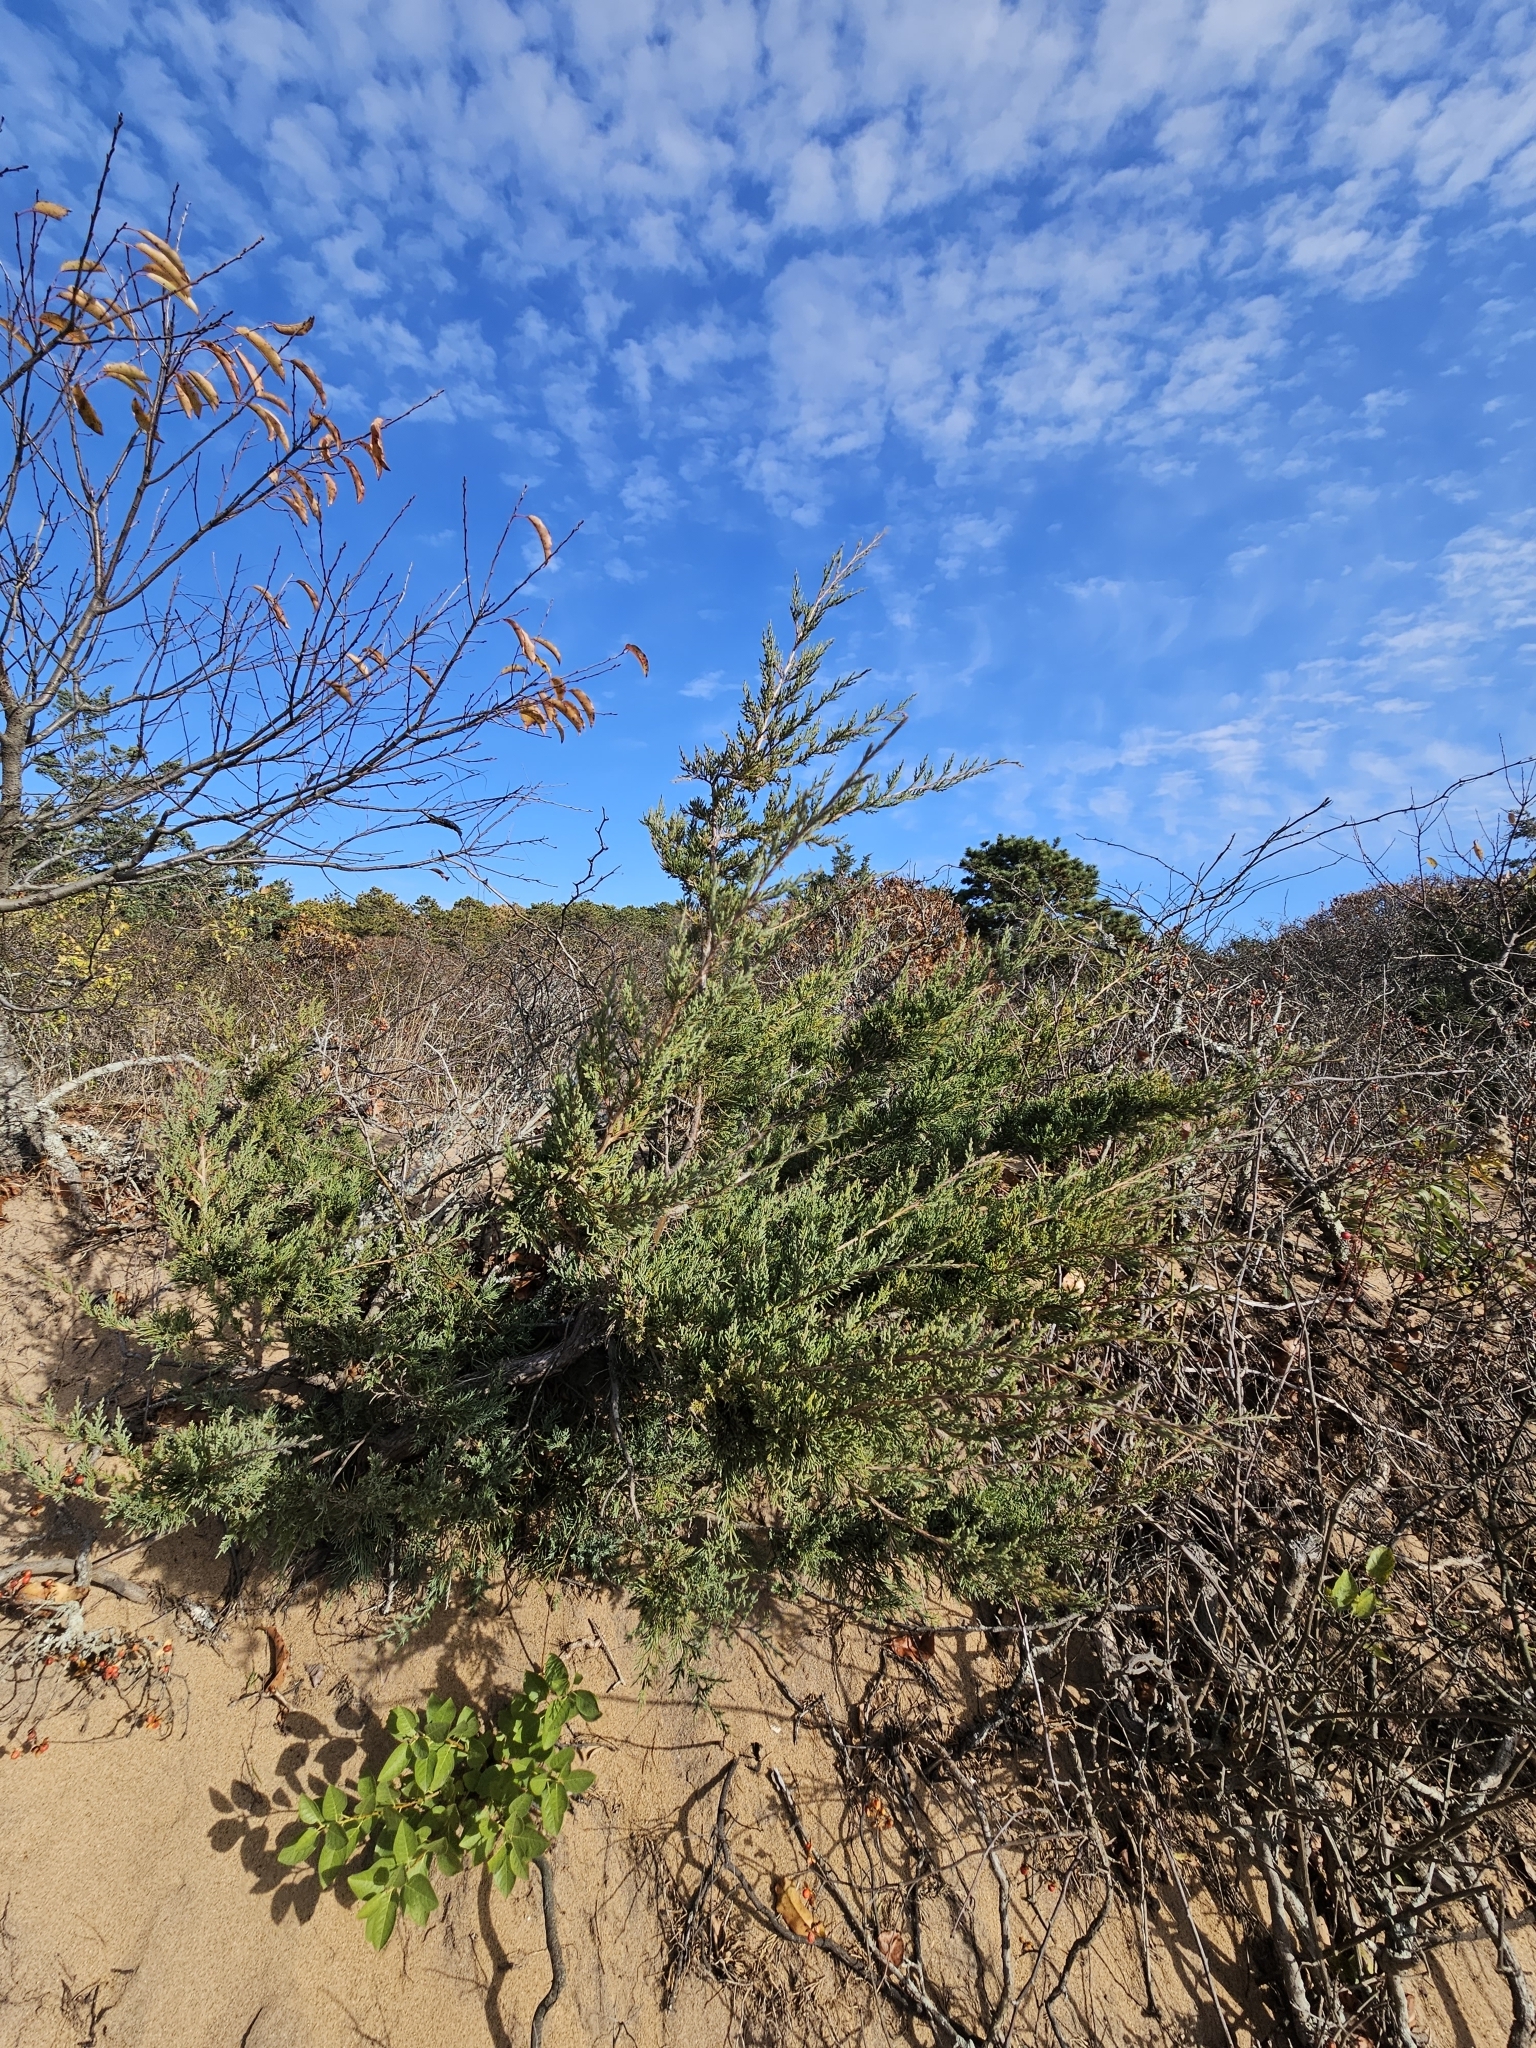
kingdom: Plantae
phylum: Tracheophyta
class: Pinopsida
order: Pinales
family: Cupressaceae
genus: Juniperus
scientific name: Juniperus virginiana
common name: Red juniper
